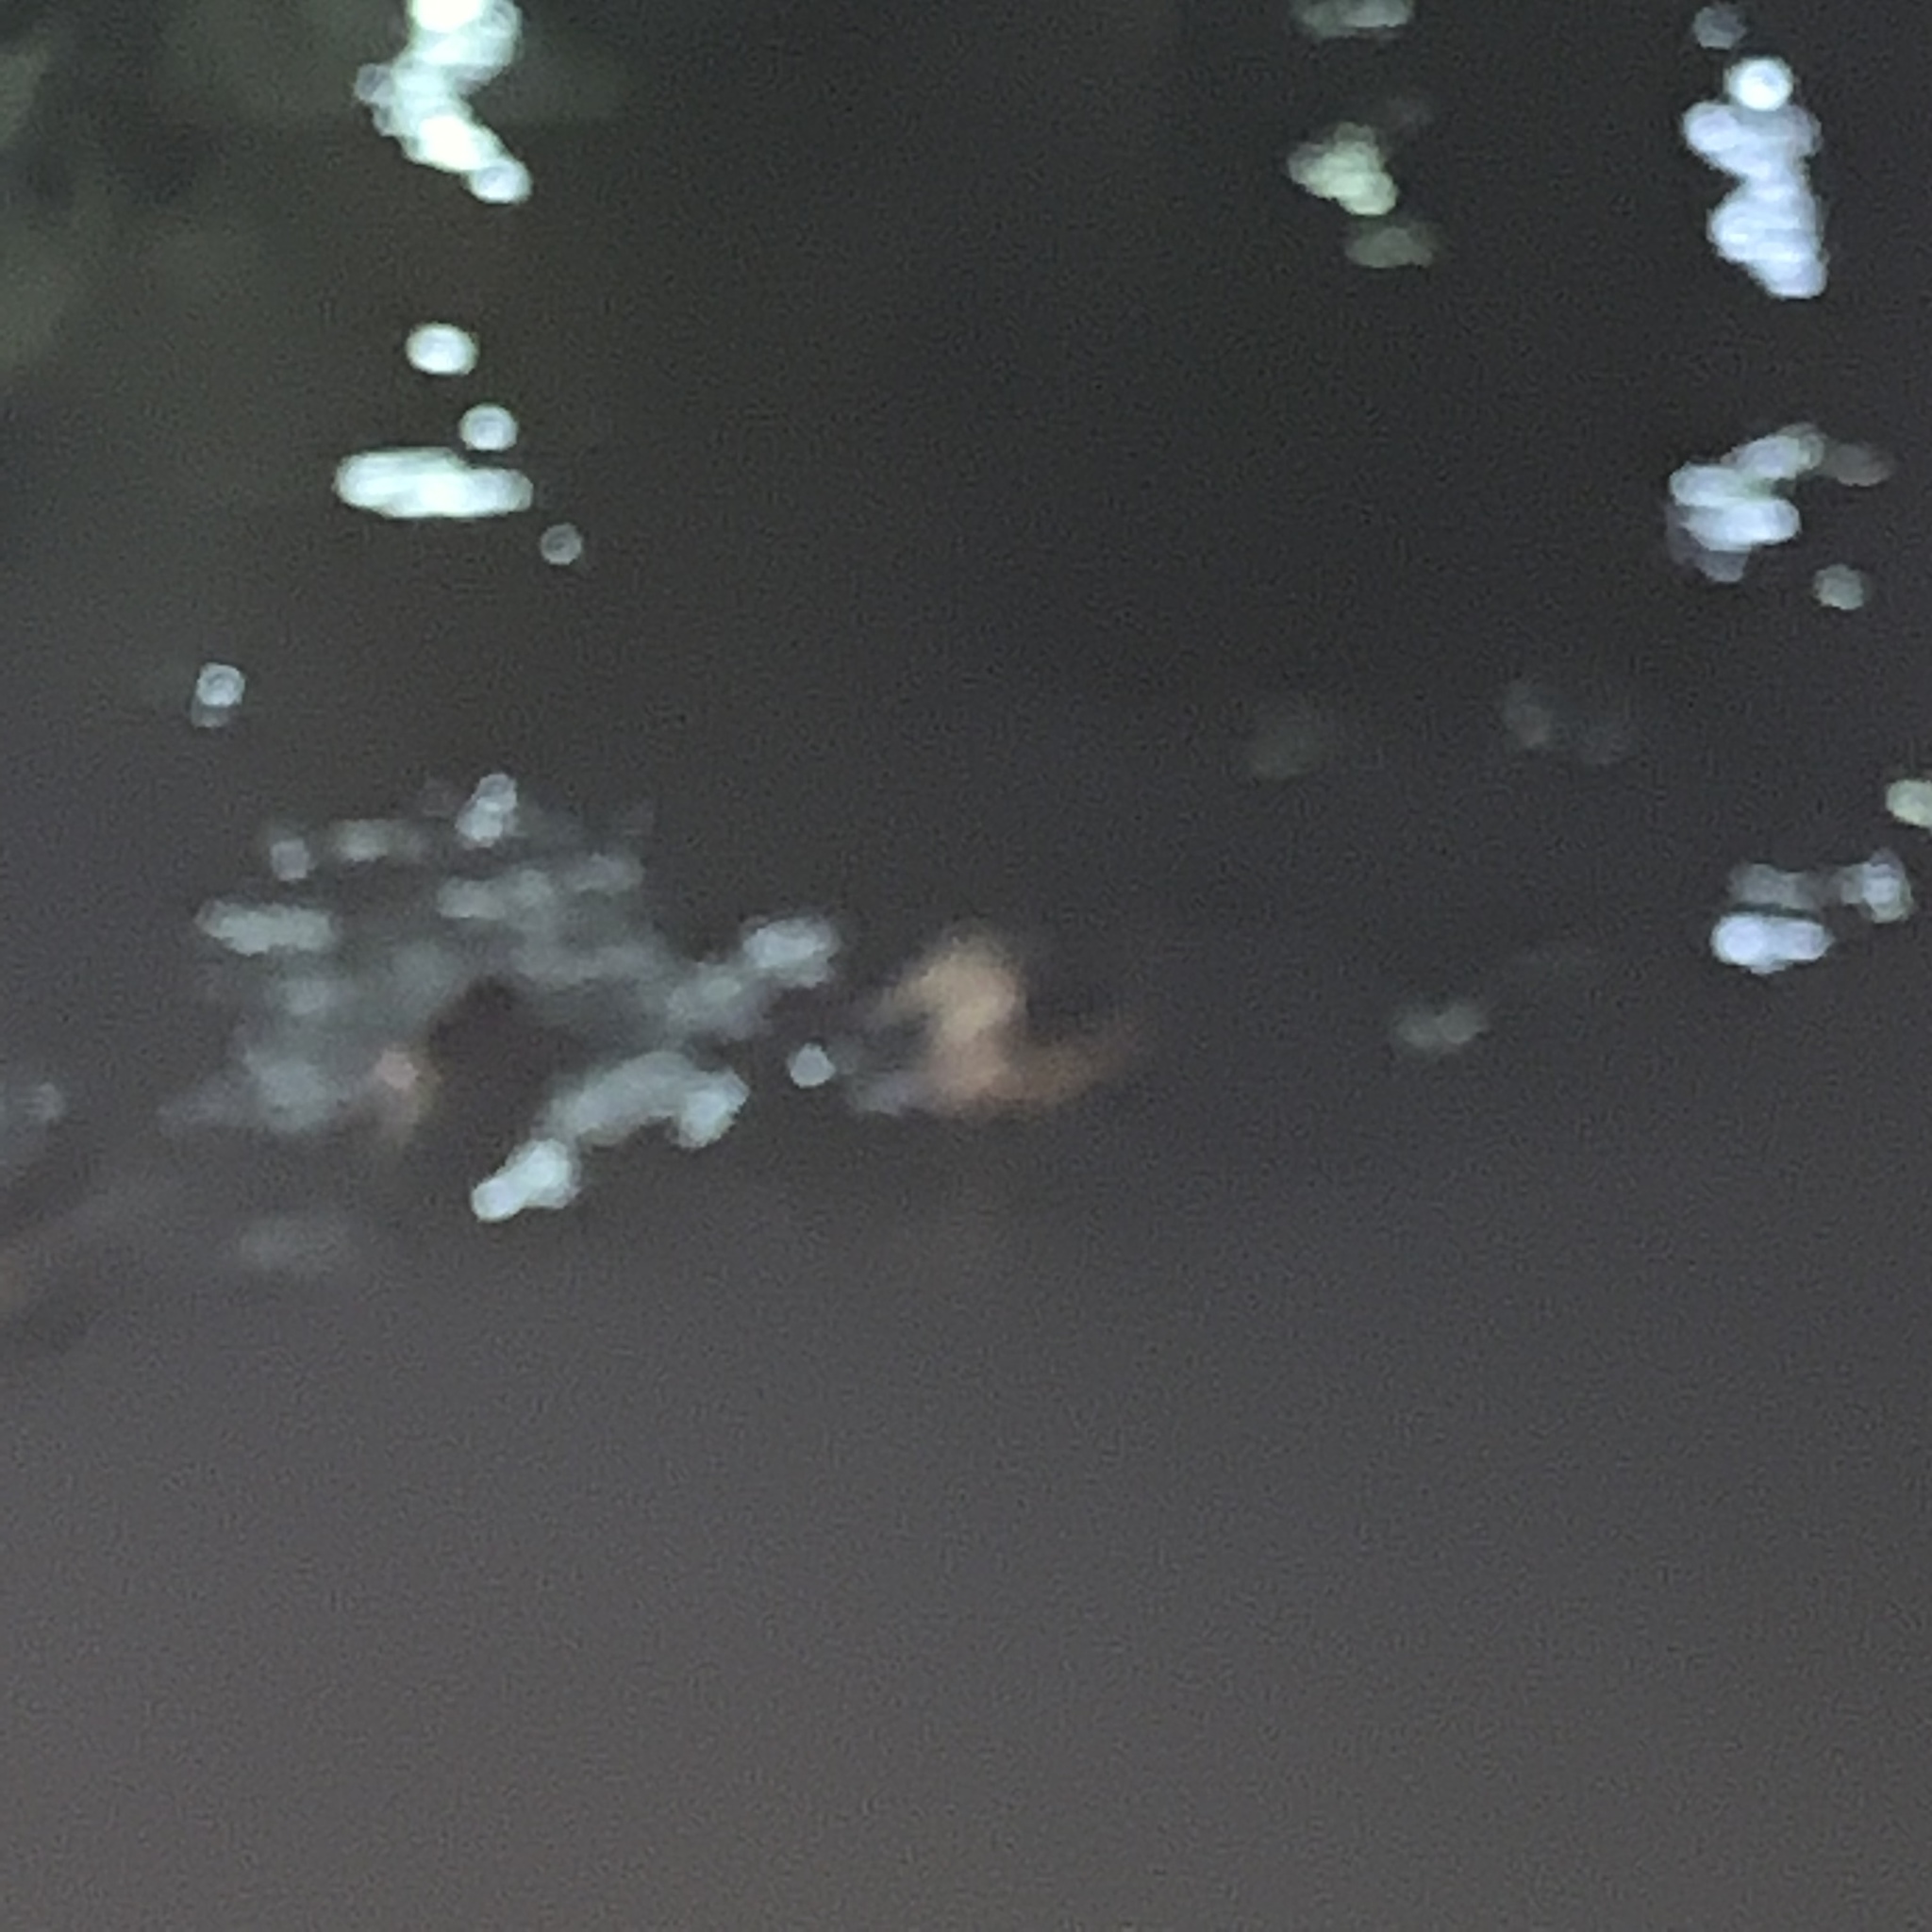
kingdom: Animalia
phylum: Chordata
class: Aves
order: Anseriformes
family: Anatidae
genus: Anas
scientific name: Anas platyrhynchos
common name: Mallard
